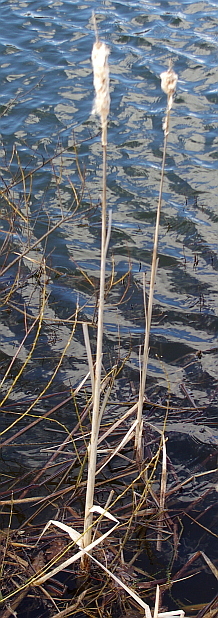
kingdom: Plantae
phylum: Tracheophyta
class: Liliopsida
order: Poales
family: Typhaceae
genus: Typha
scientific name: Typha latifolia
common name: Broadleaf cattail
